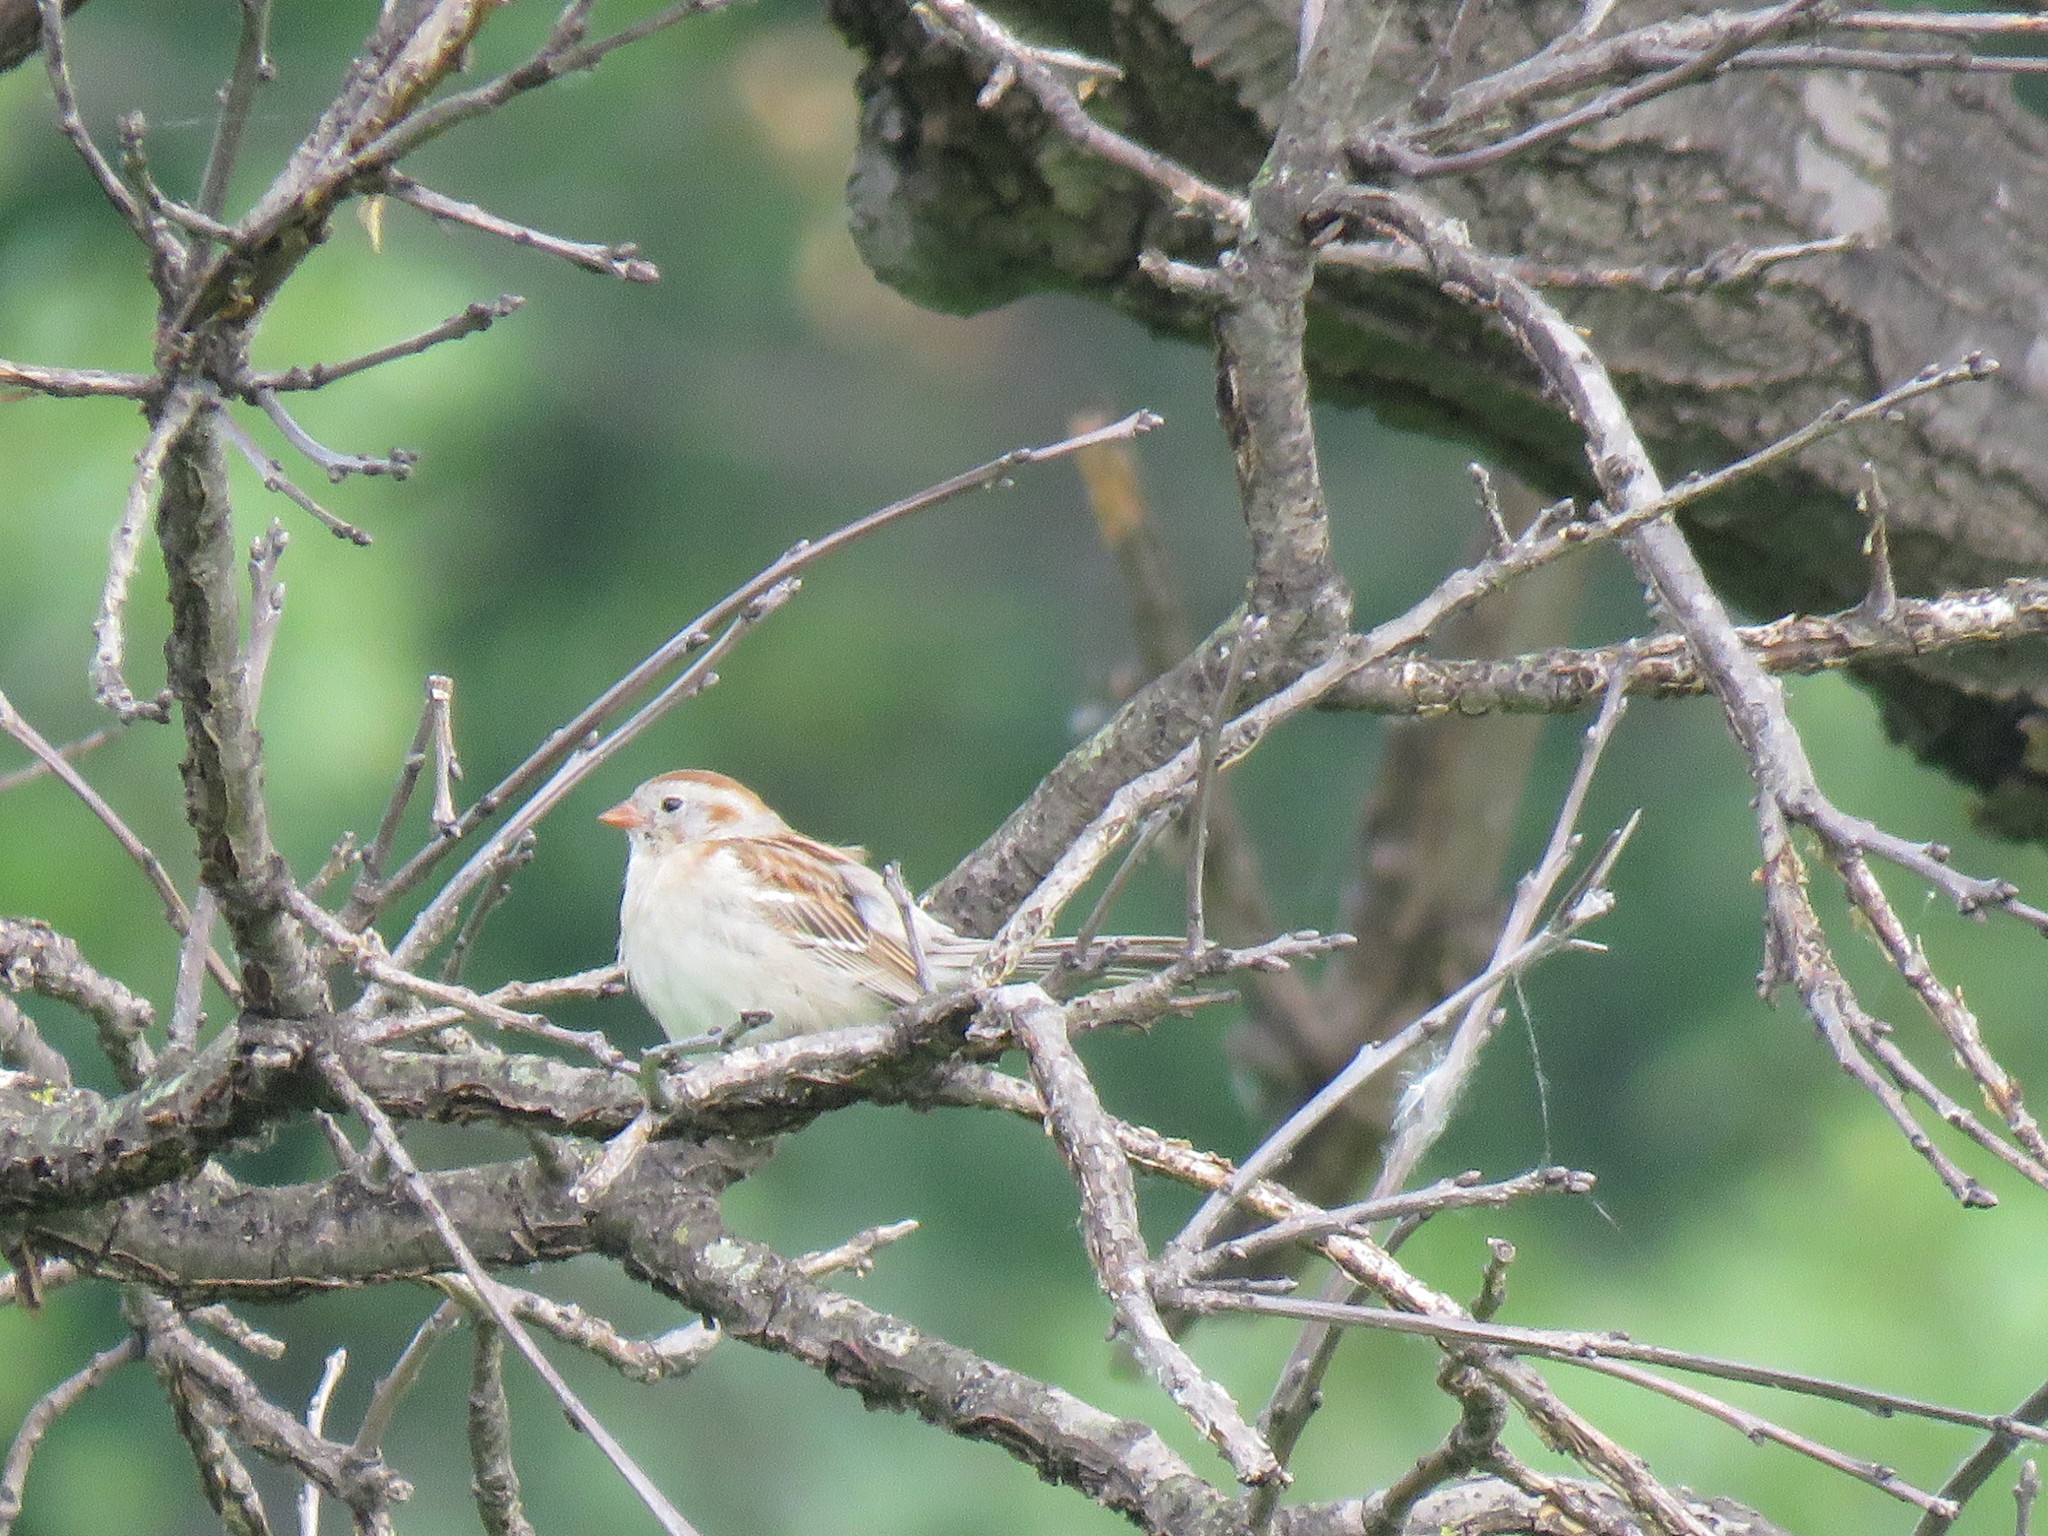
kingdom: Animalia
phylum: Chordata
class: Aves
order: Passeriformes
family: Passerellidae
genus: Spizella
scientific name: Spizella pusilla
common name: Field sparrow
